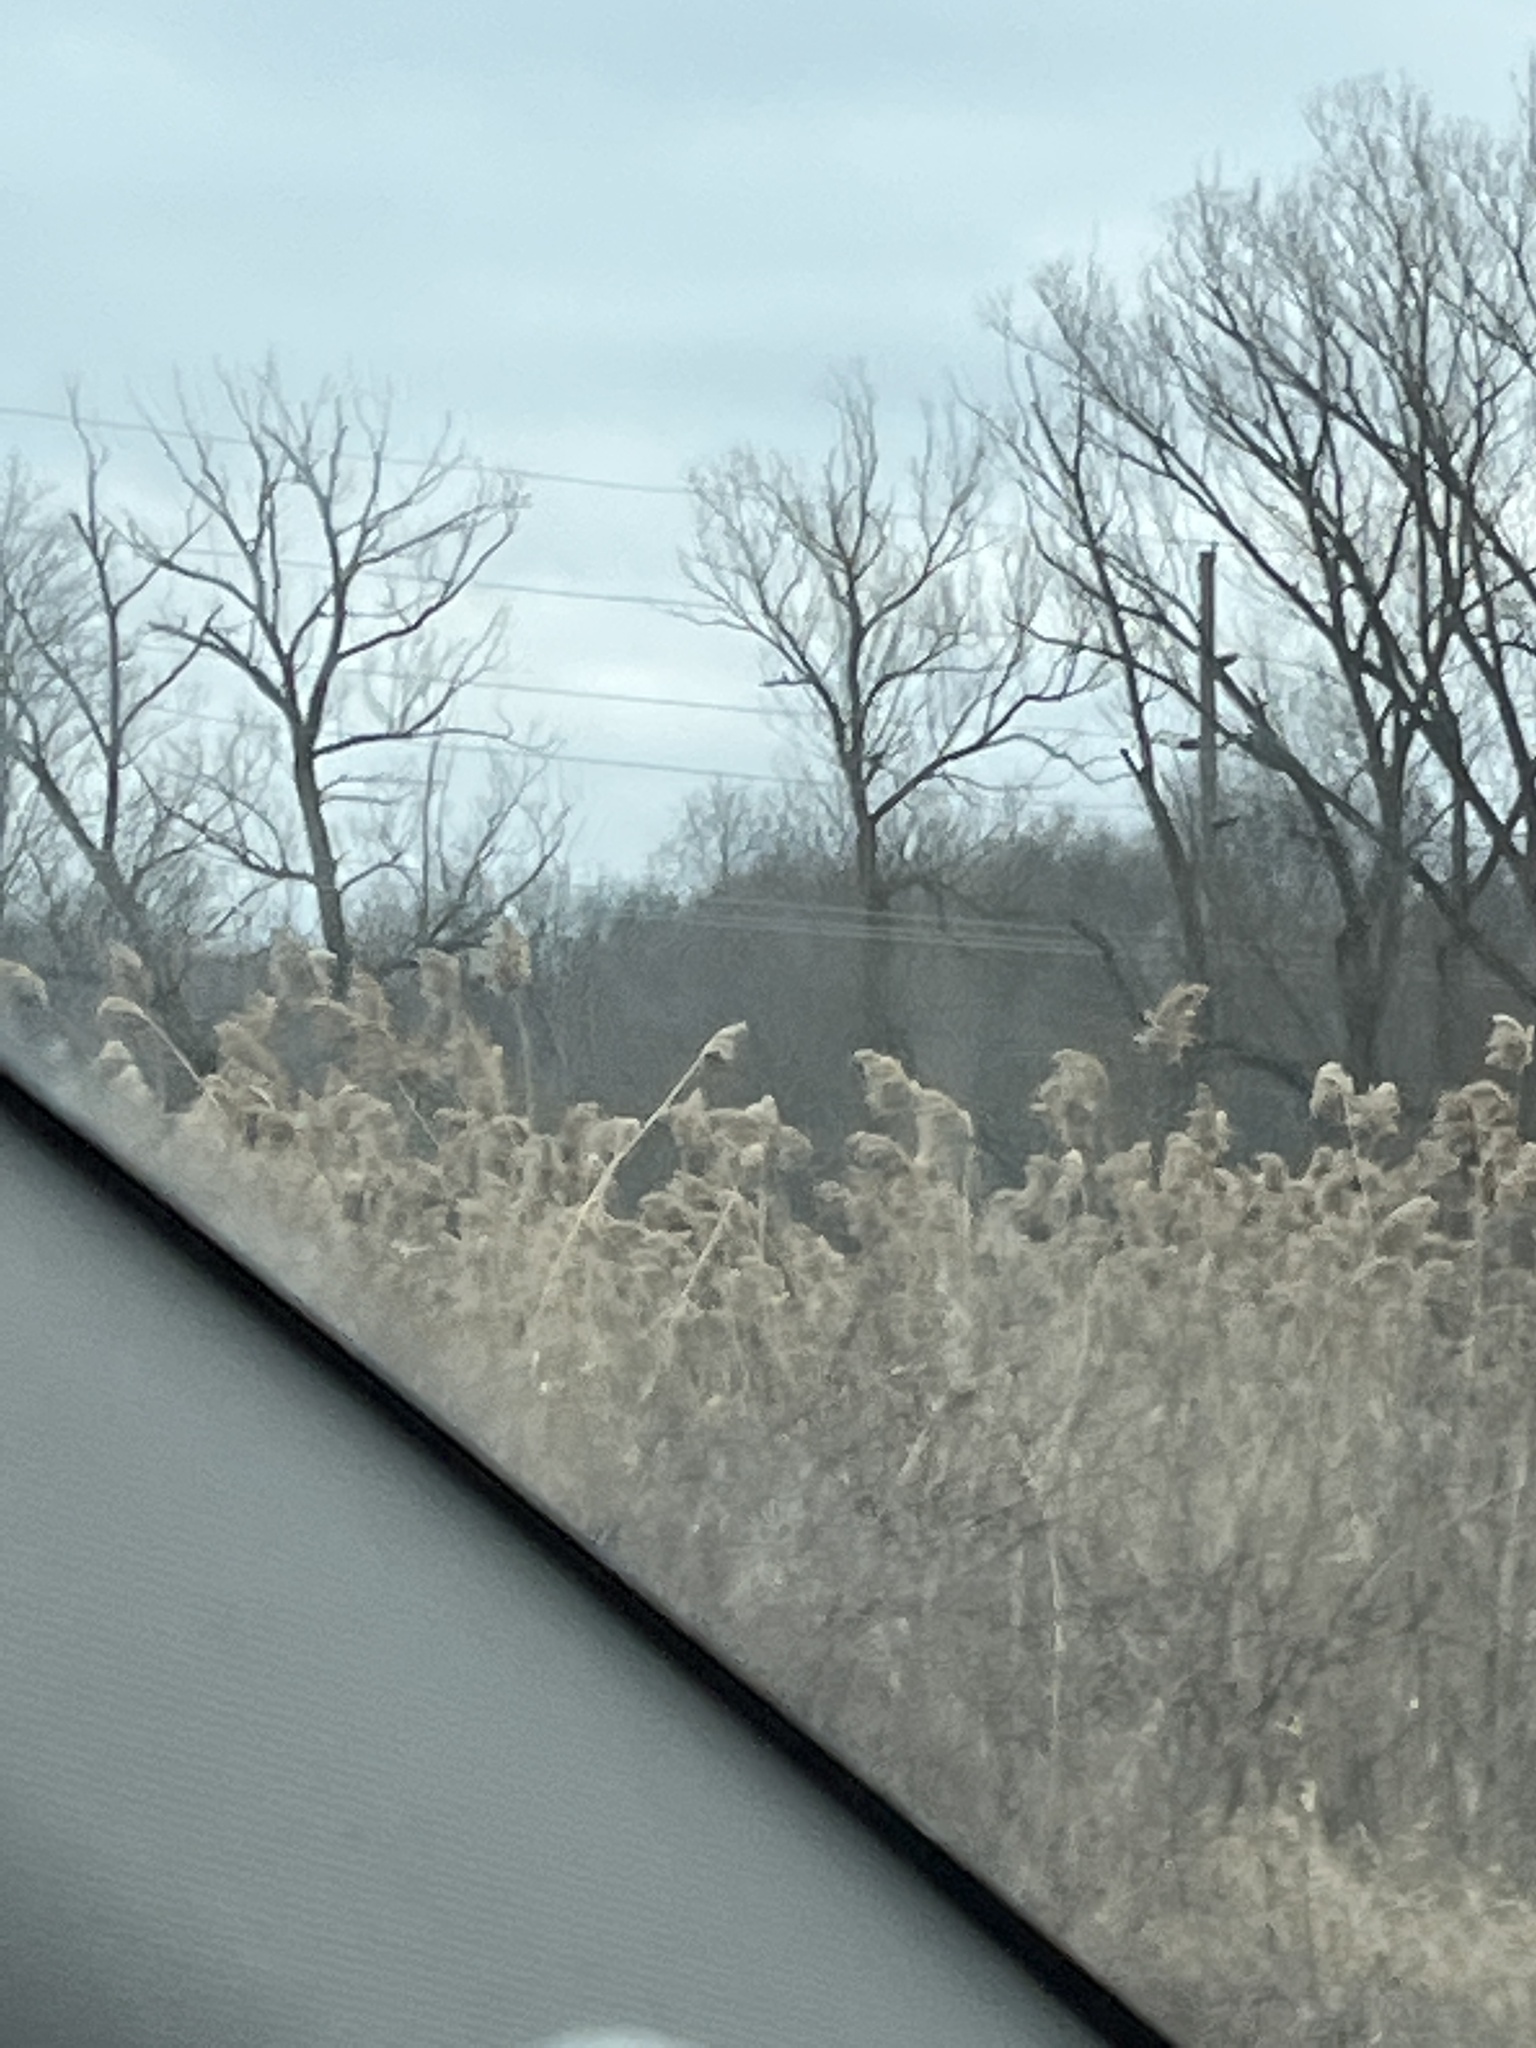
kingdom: Plantae
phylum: Tracheophyta
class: Liliopsida
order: Poales
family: Poaceae
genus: Phragmites
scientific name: Phragmites australis
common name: Common reed
